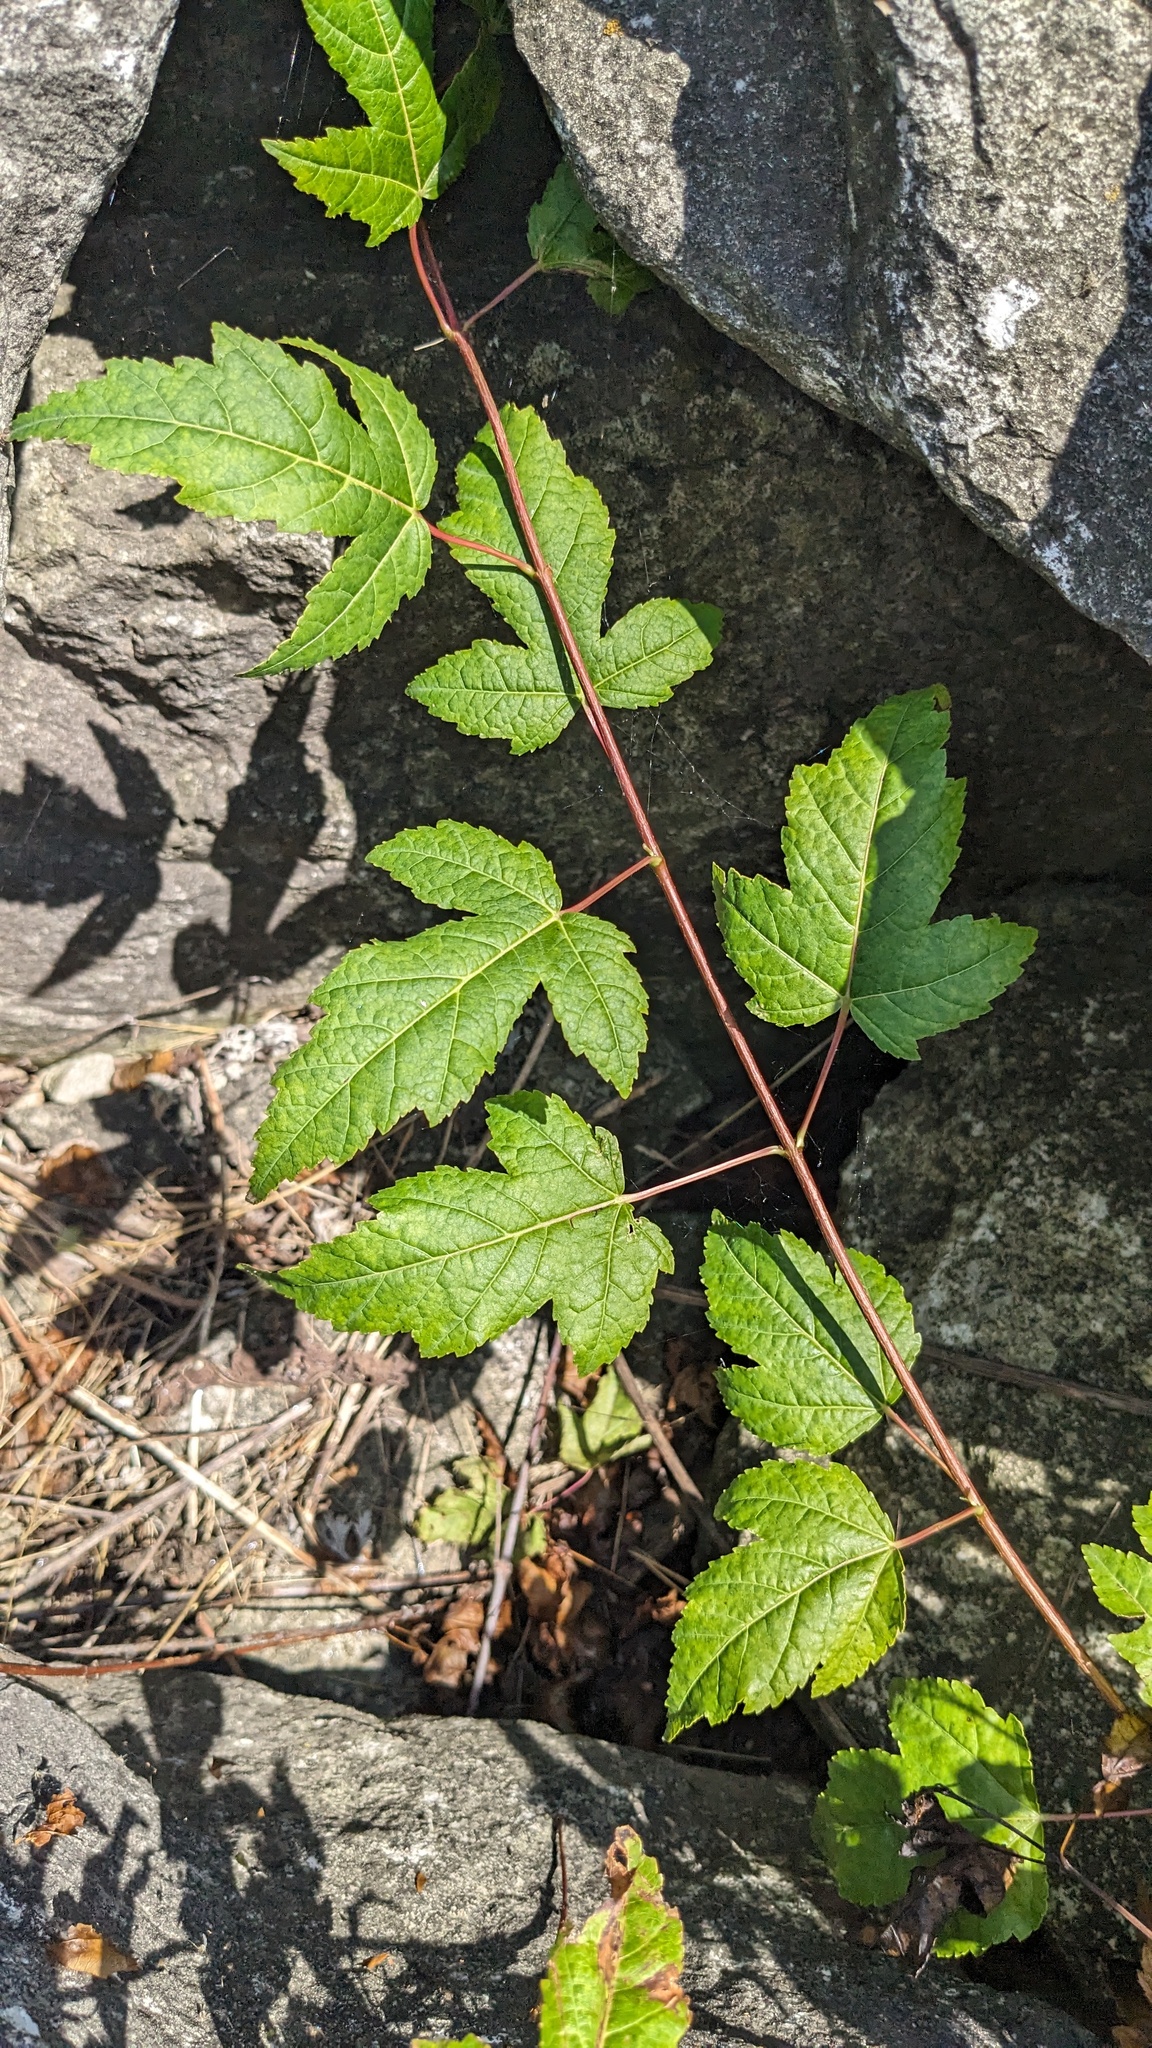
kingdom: Plantae
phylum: Tracheophyta
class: Magnoliopsida
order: Sapindales
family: Sapindaceae
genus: Acer
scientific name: Acer tataricum
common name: Tartar maple
